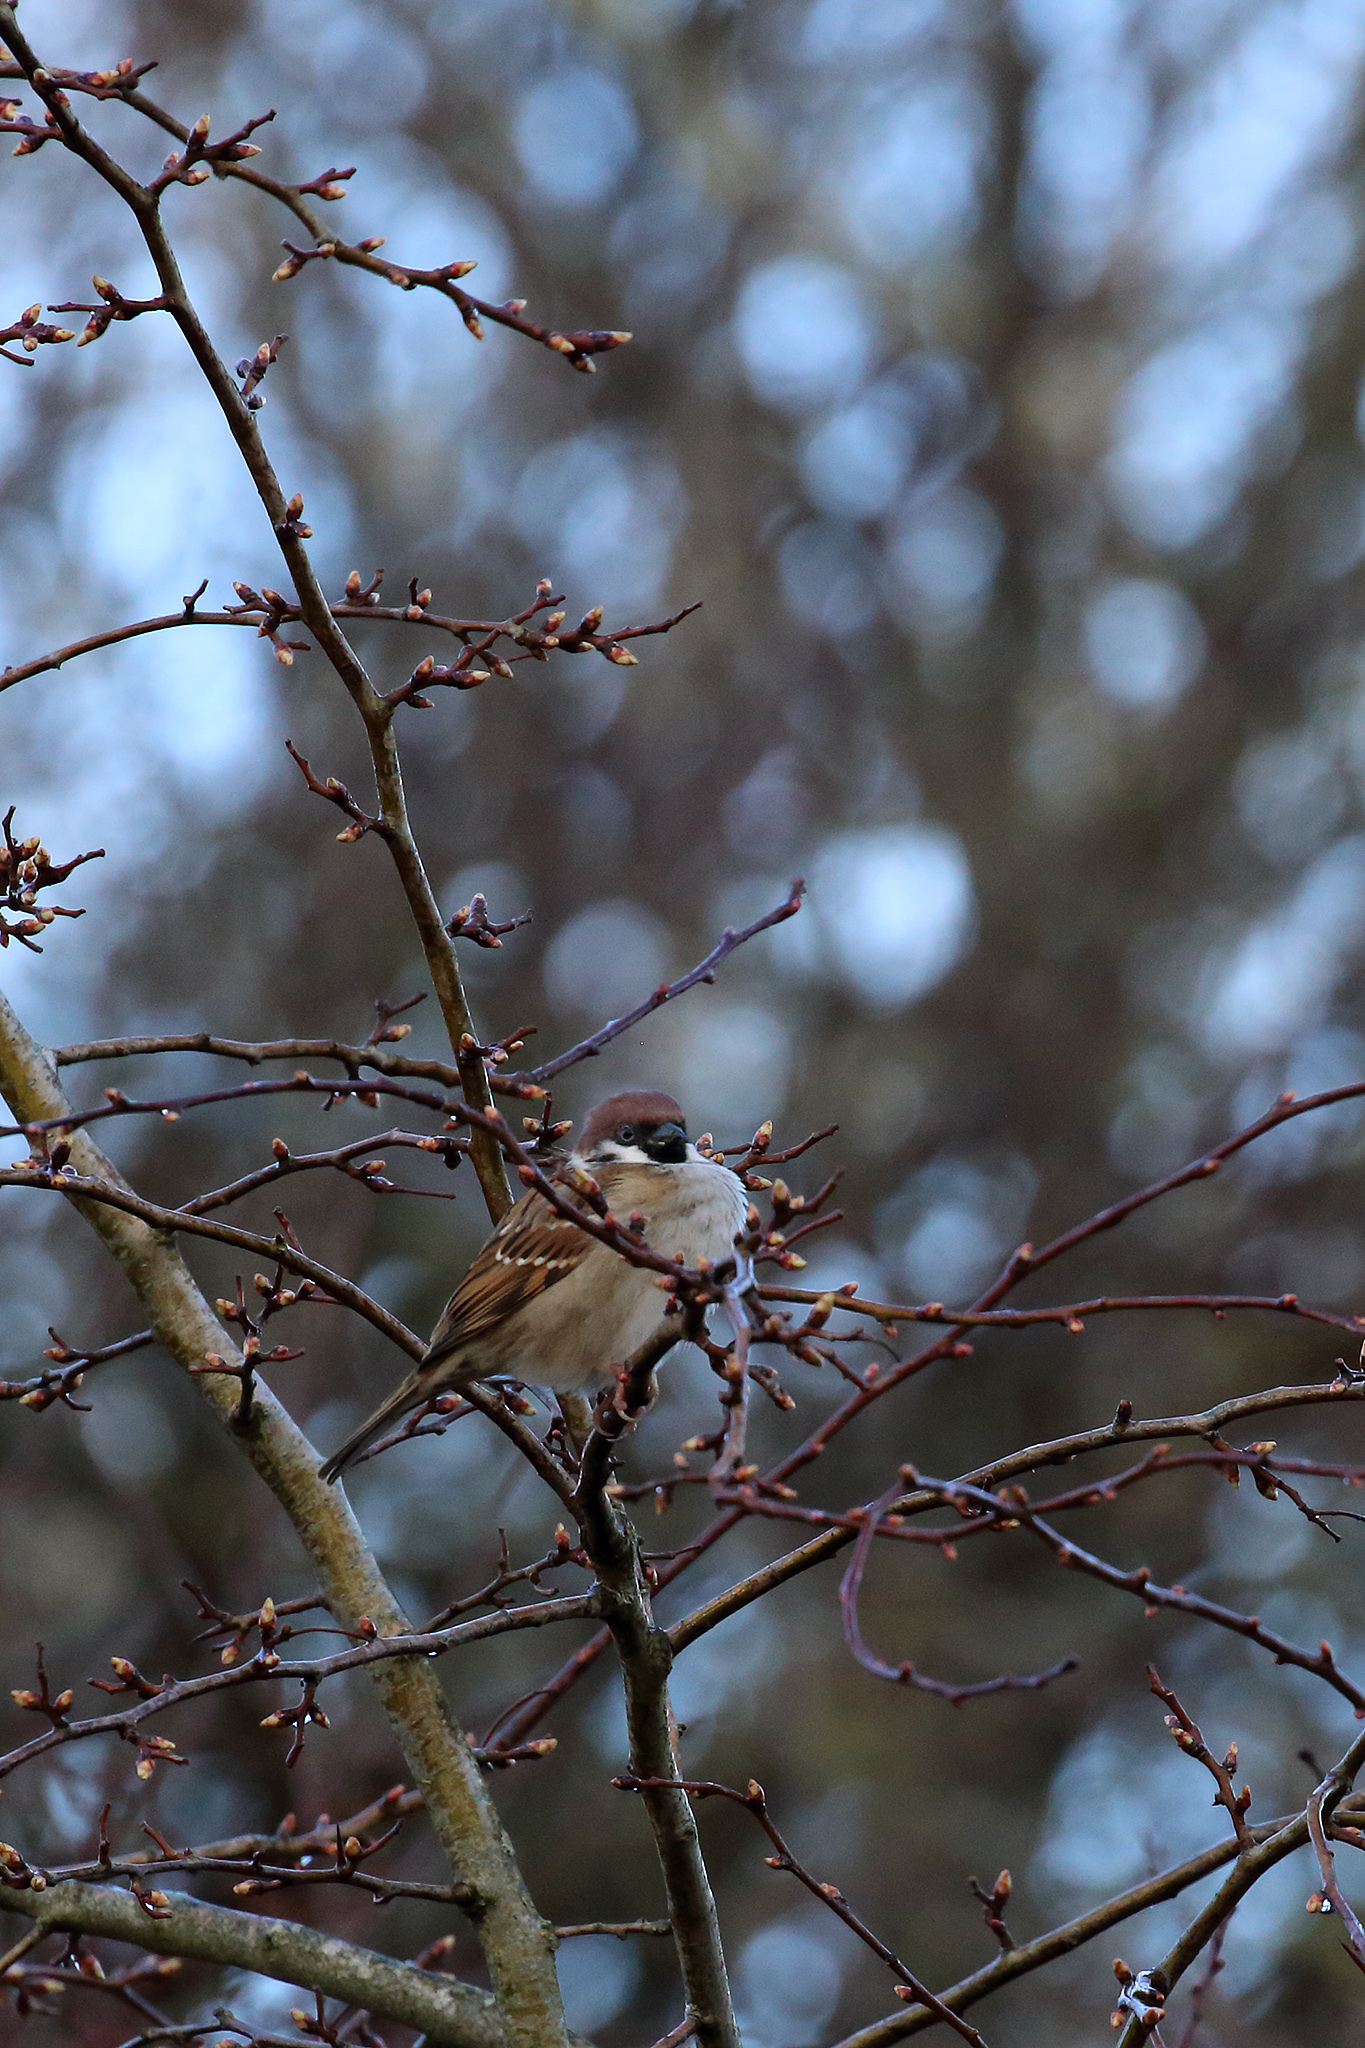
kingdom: Animalia
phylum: Chordata
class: Aves
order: Passeriformes
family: Passeridae
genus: Passer
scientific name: Passer montanus
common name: Eurasian tree sparrow
